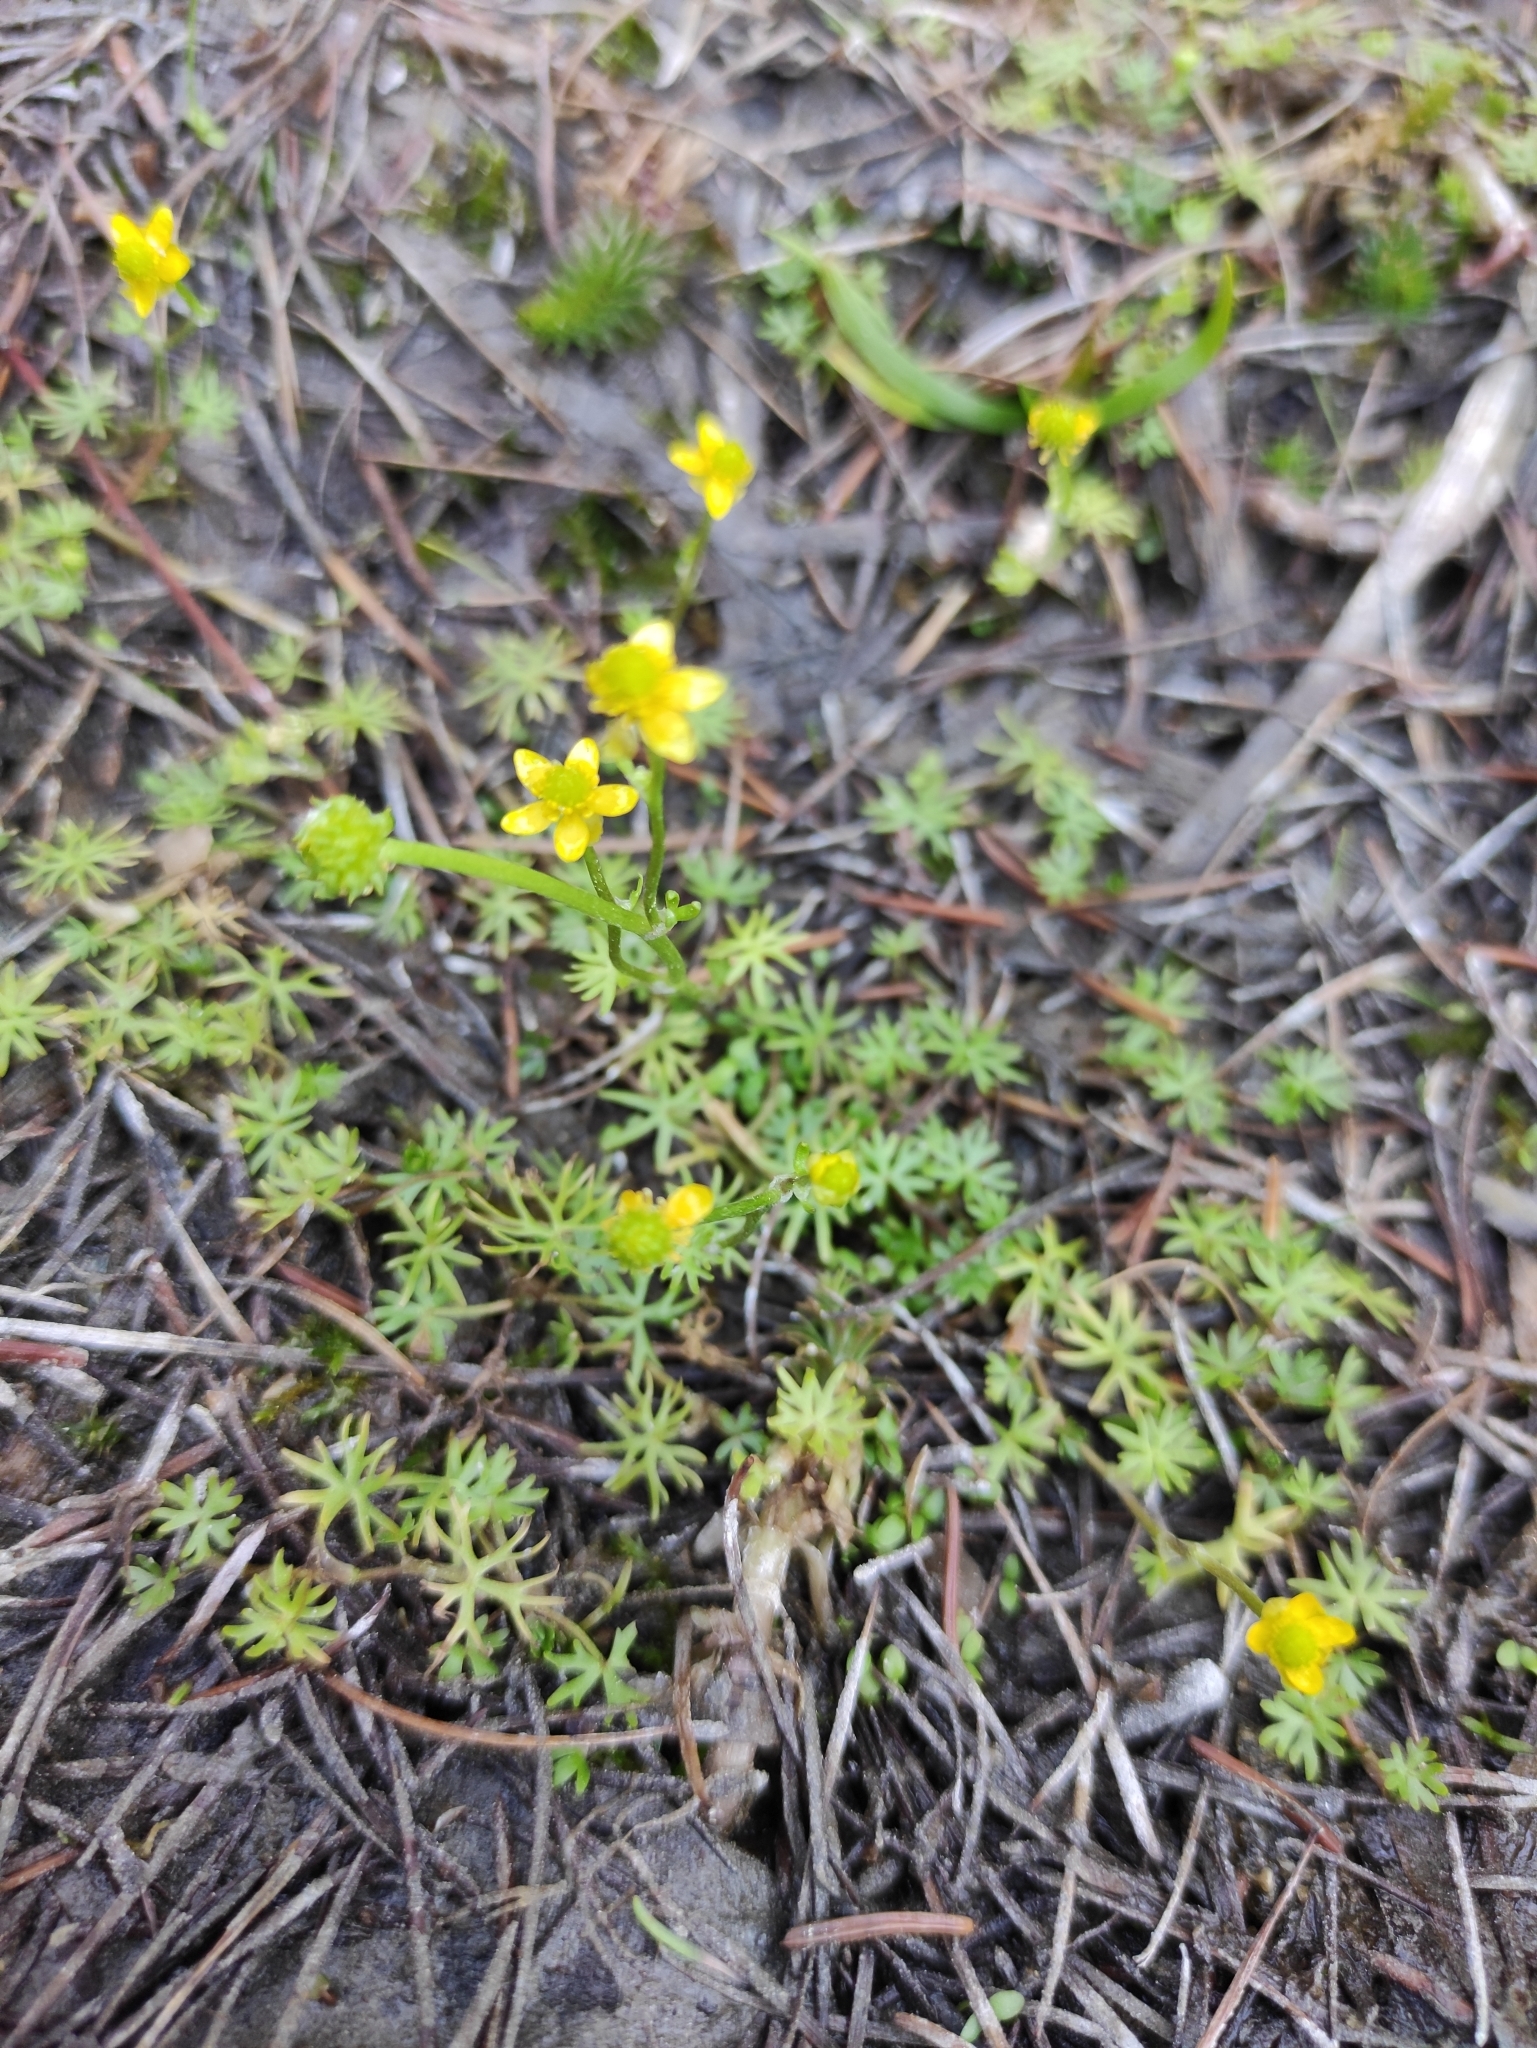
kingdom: Plantae
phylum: Tracheophyta
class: Magnoliopsida
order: Ranunculales
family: Ranunculaceae
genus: Ranunculus
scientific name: Ranunculus gmelinii
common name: Gmelin's buttercup
